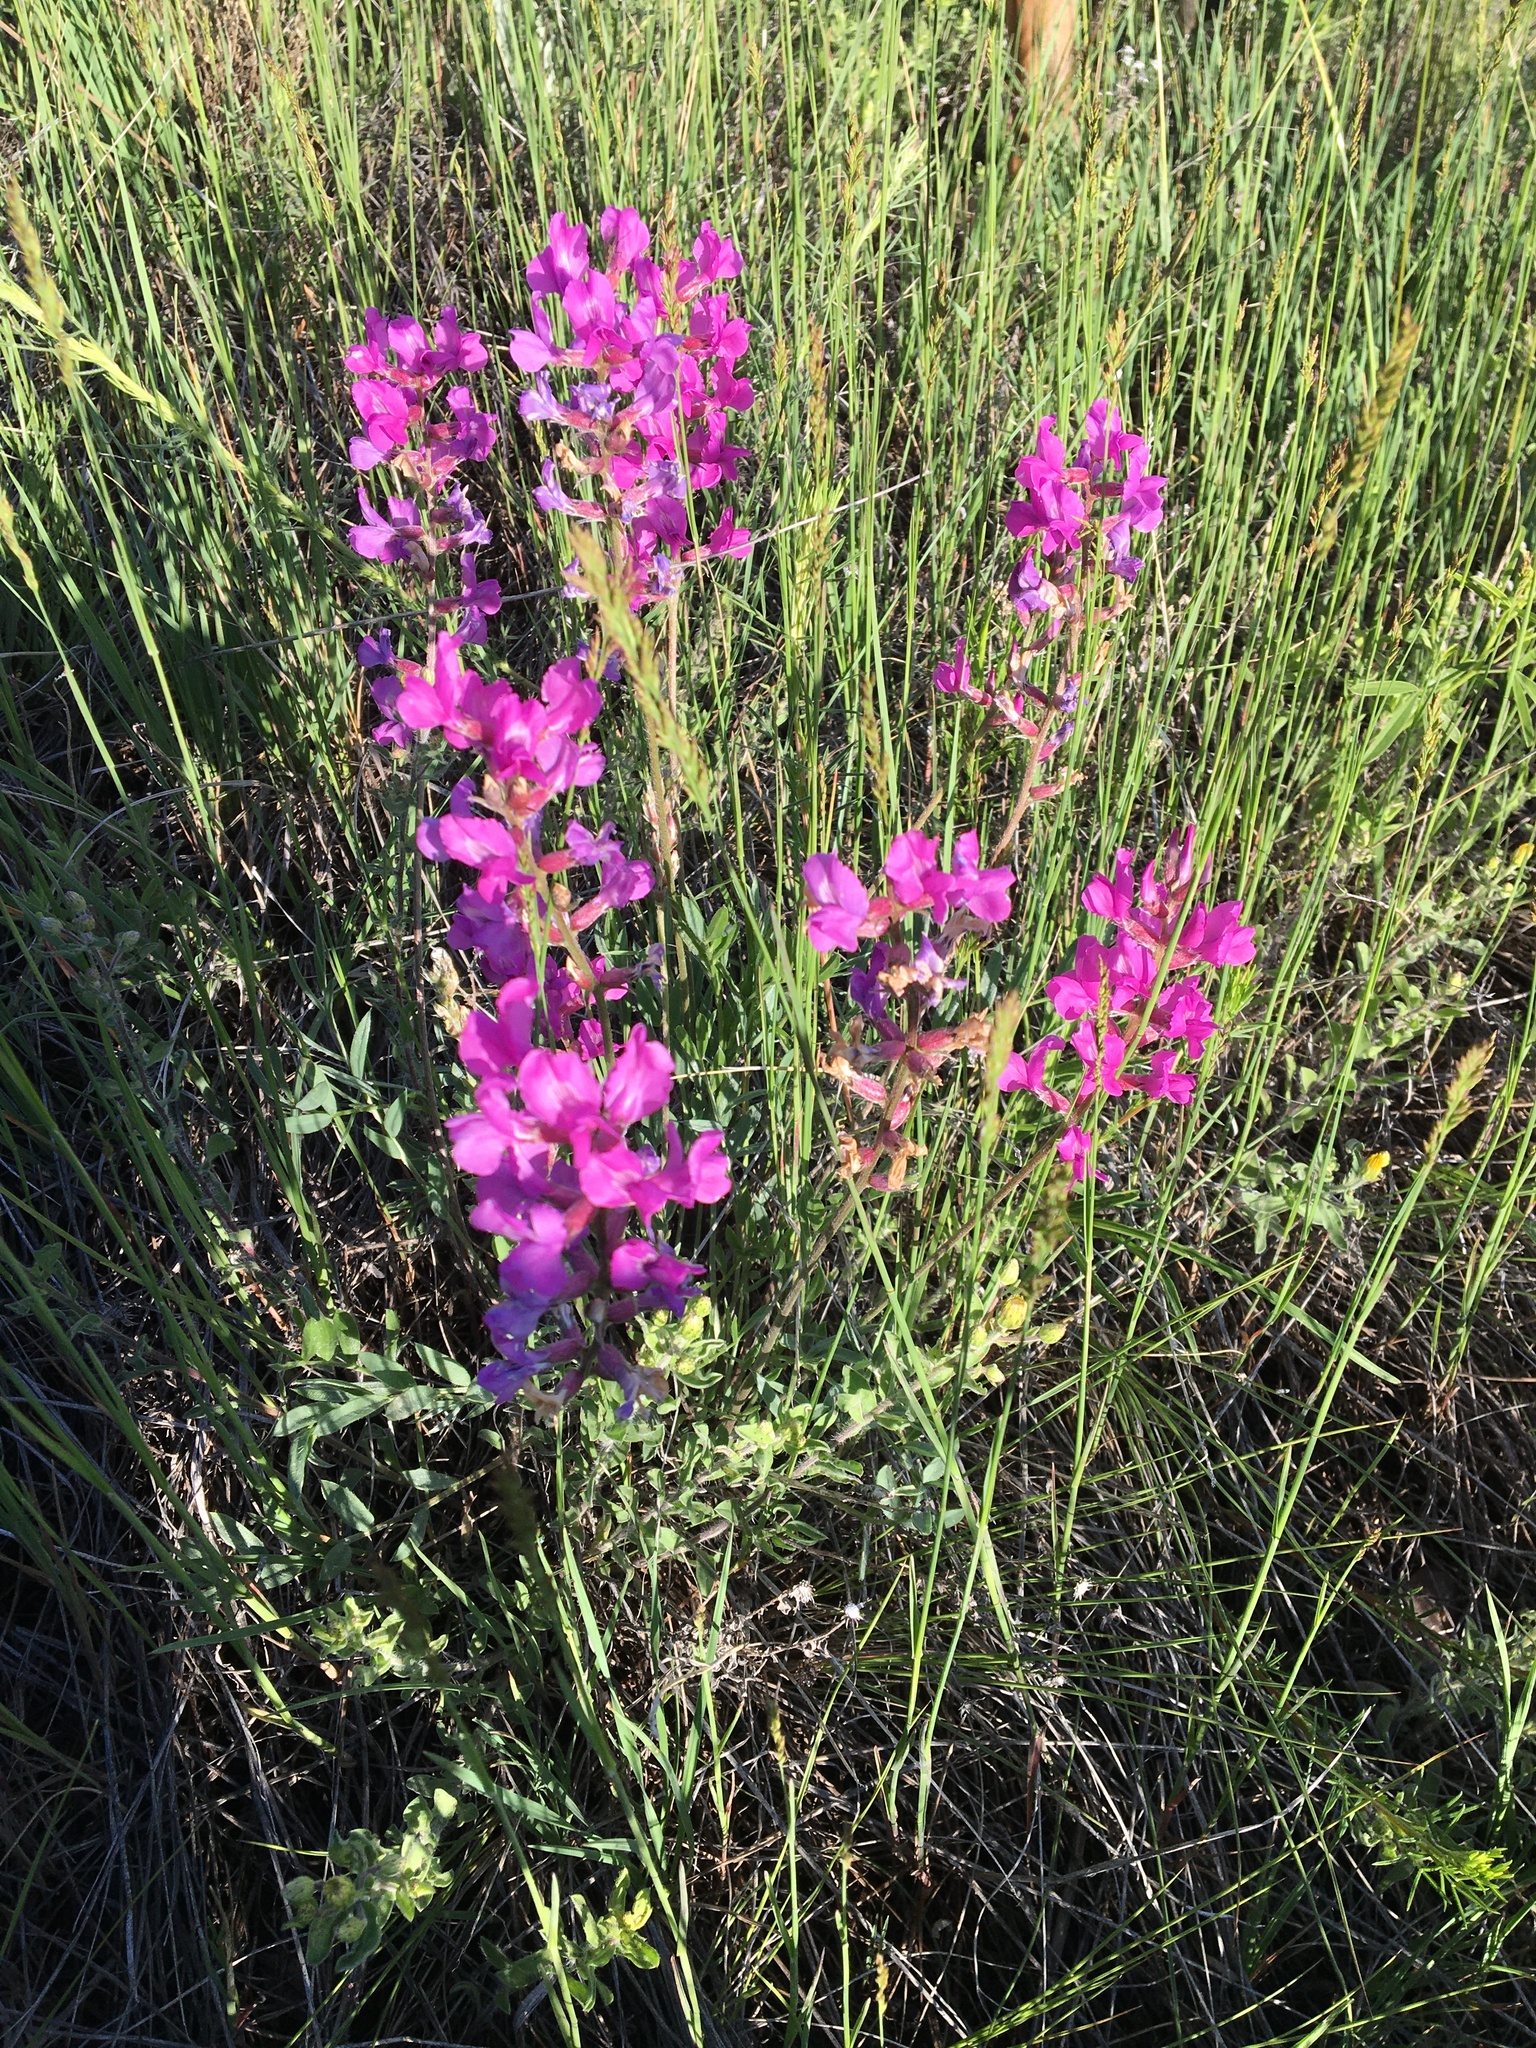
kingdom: Plantae
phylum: Tracheophyta
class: Magnoliopsida
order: Fabales
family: Fabaceae
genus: Oxytropis
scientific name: Oxytropis lambertii
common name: Purple locoweed
